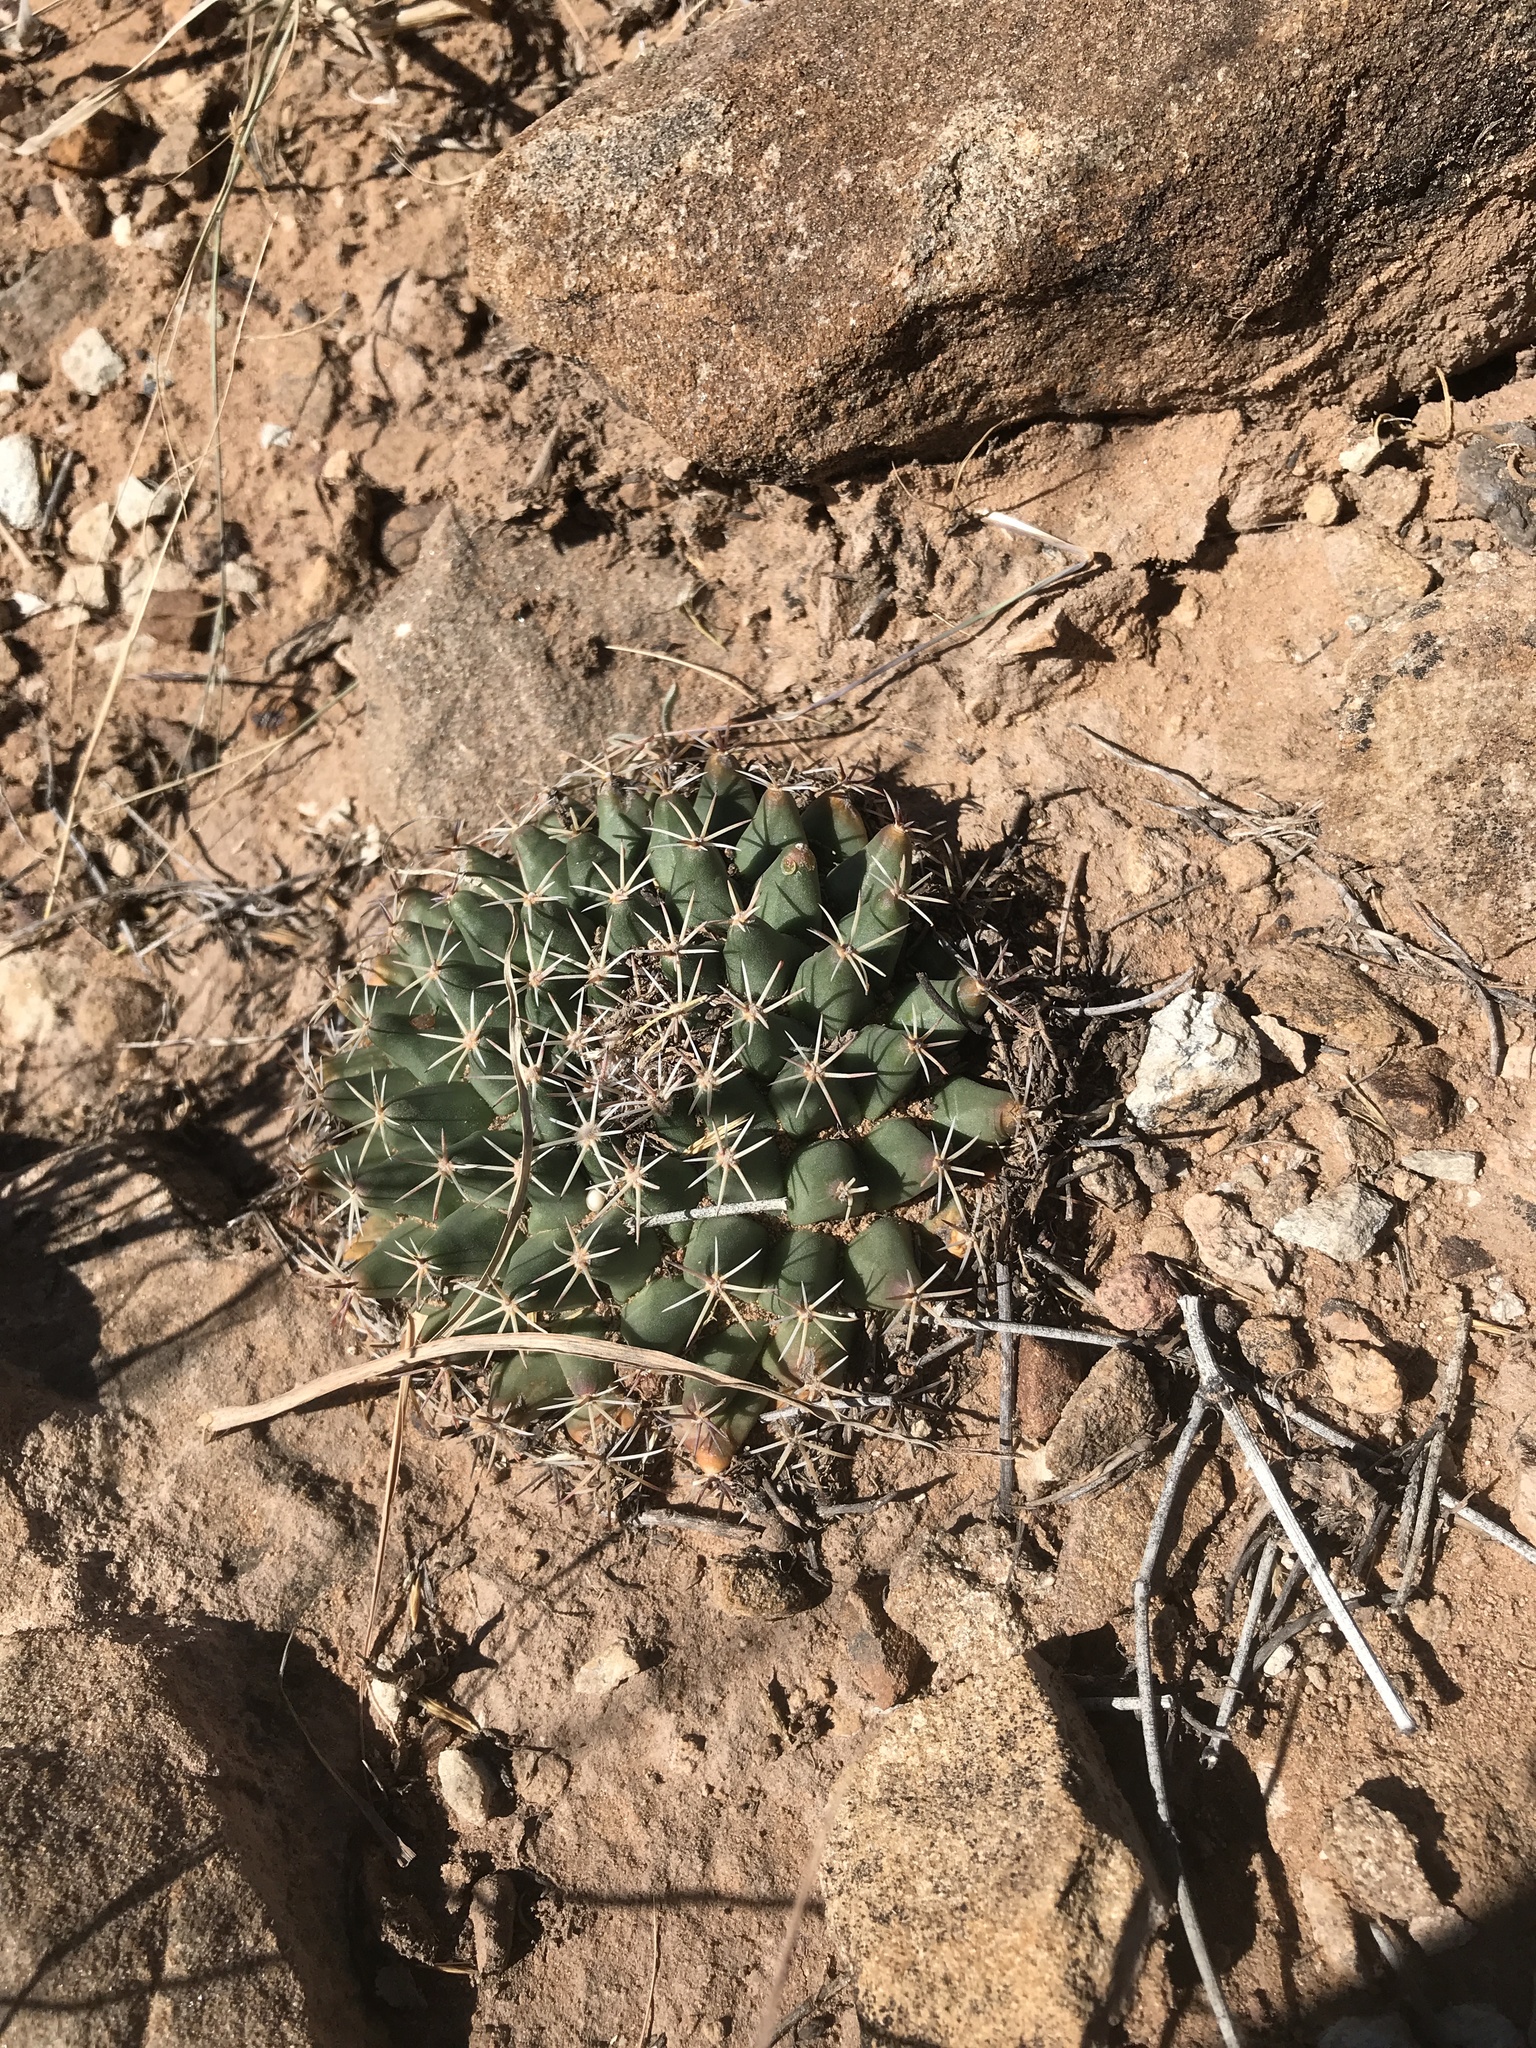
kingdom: Plantae
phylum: Tracheophyta
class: Magnoliopsida
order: Caryophyllales
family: Cactaceae
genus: Mammillaria
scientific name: Mammillaria heyderi
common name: Little nipple cactus
